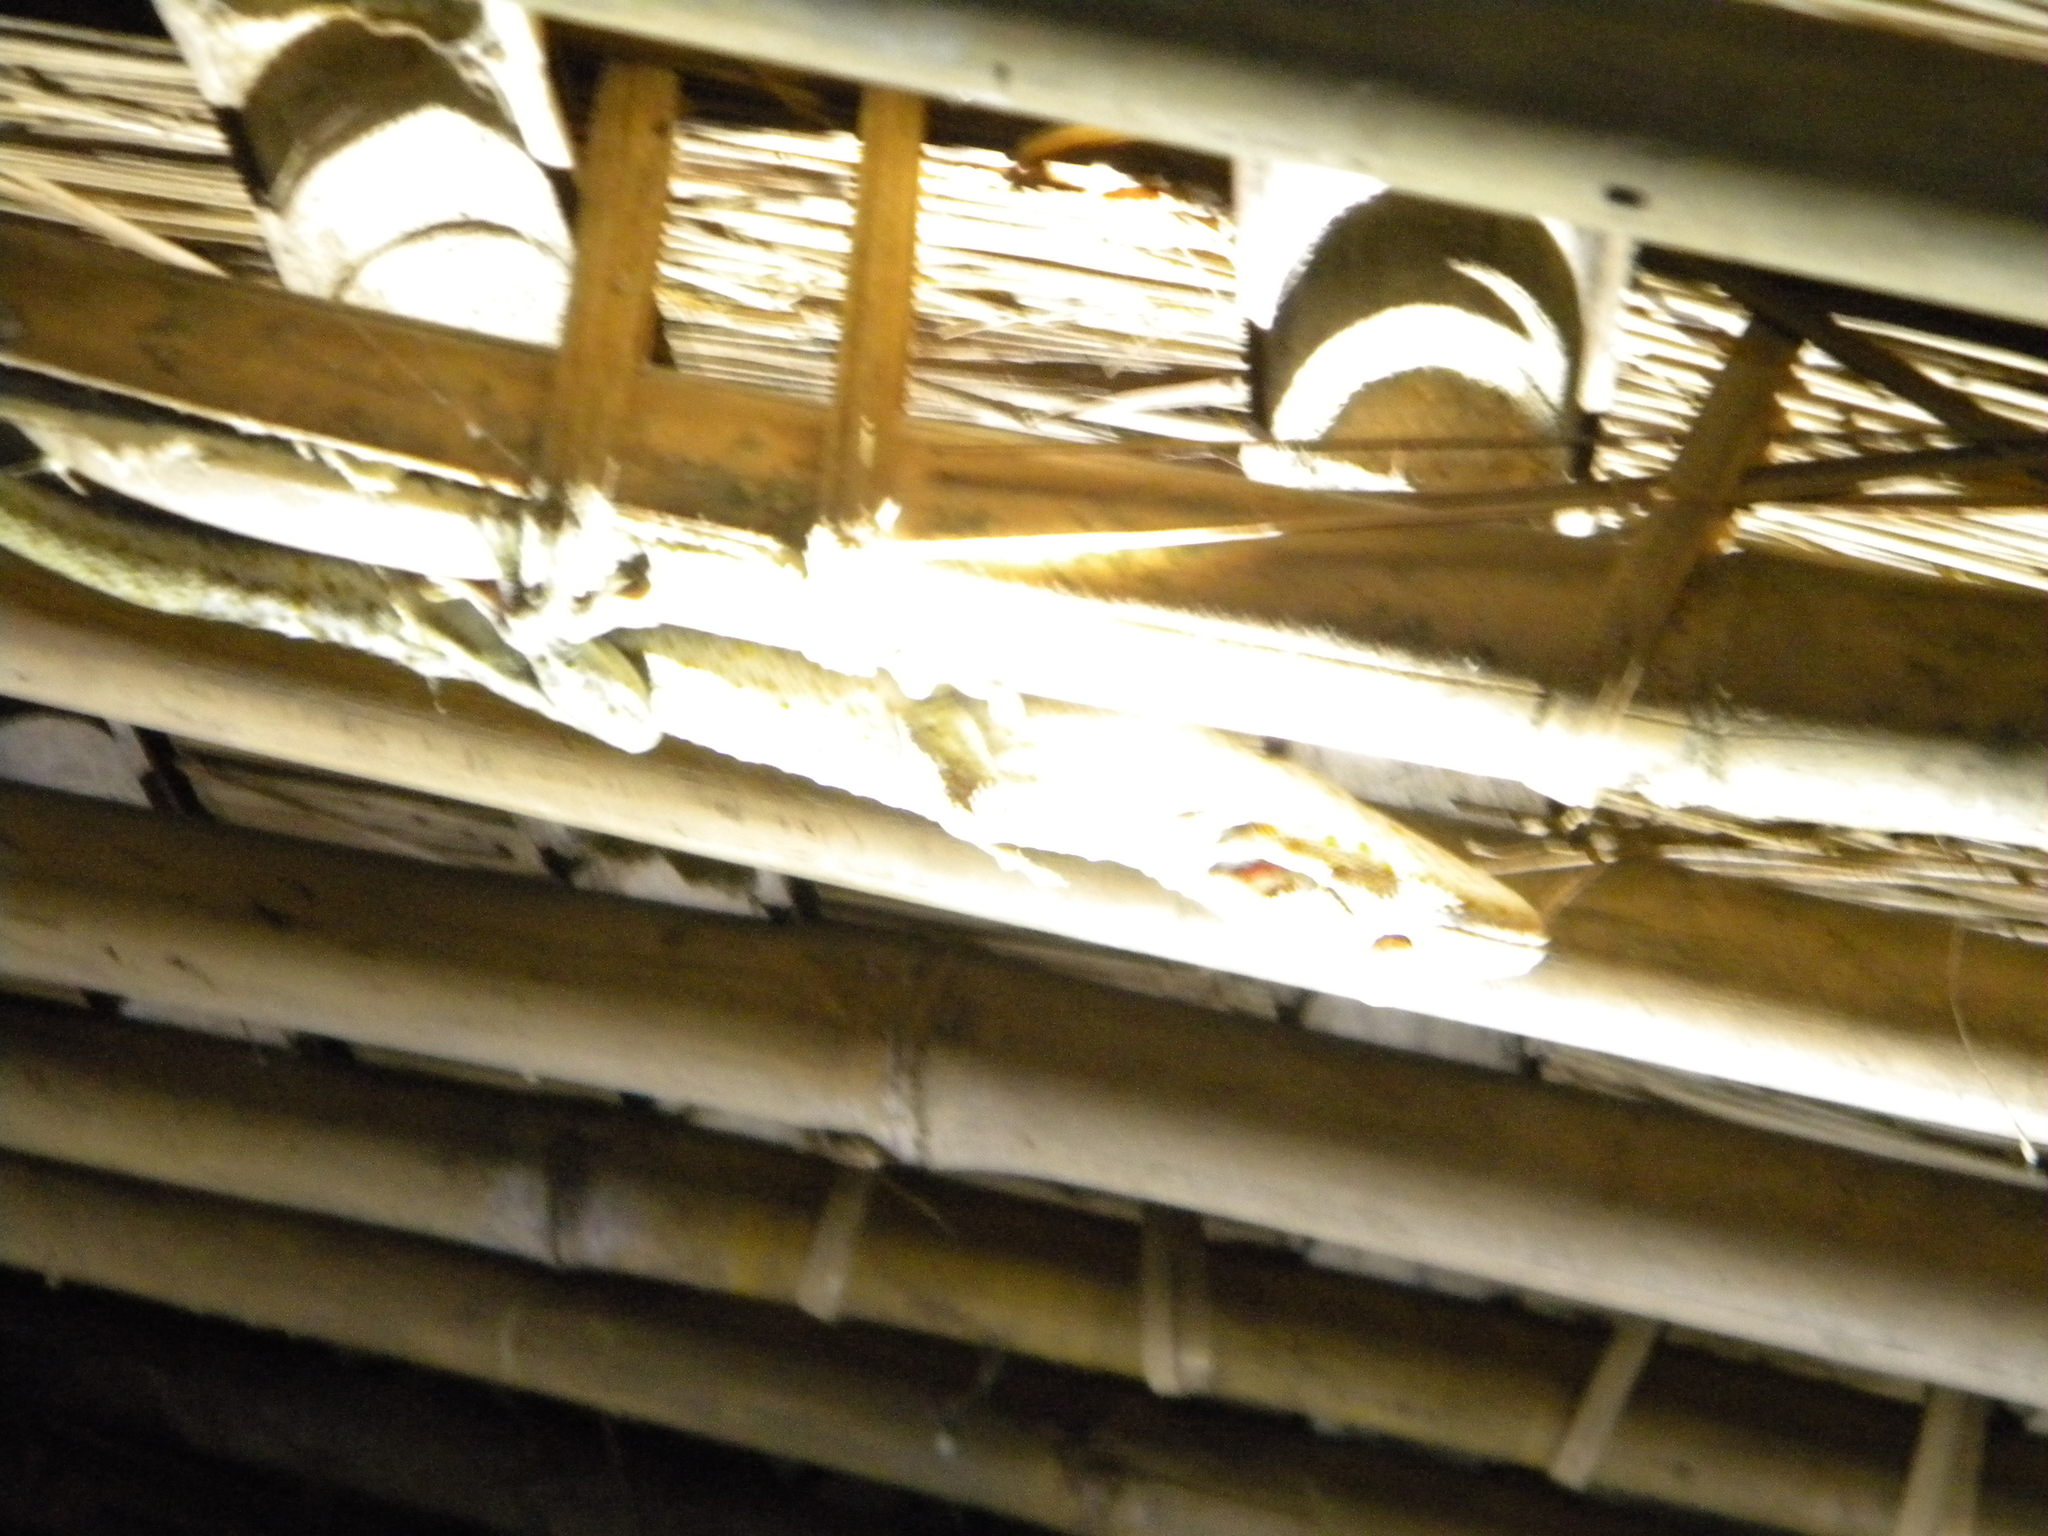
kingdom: Animalia
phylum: Chordata
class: Squamata
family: Gekkonidae
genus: Gekko
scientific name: Gekko gecko
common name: Tokay gecko
